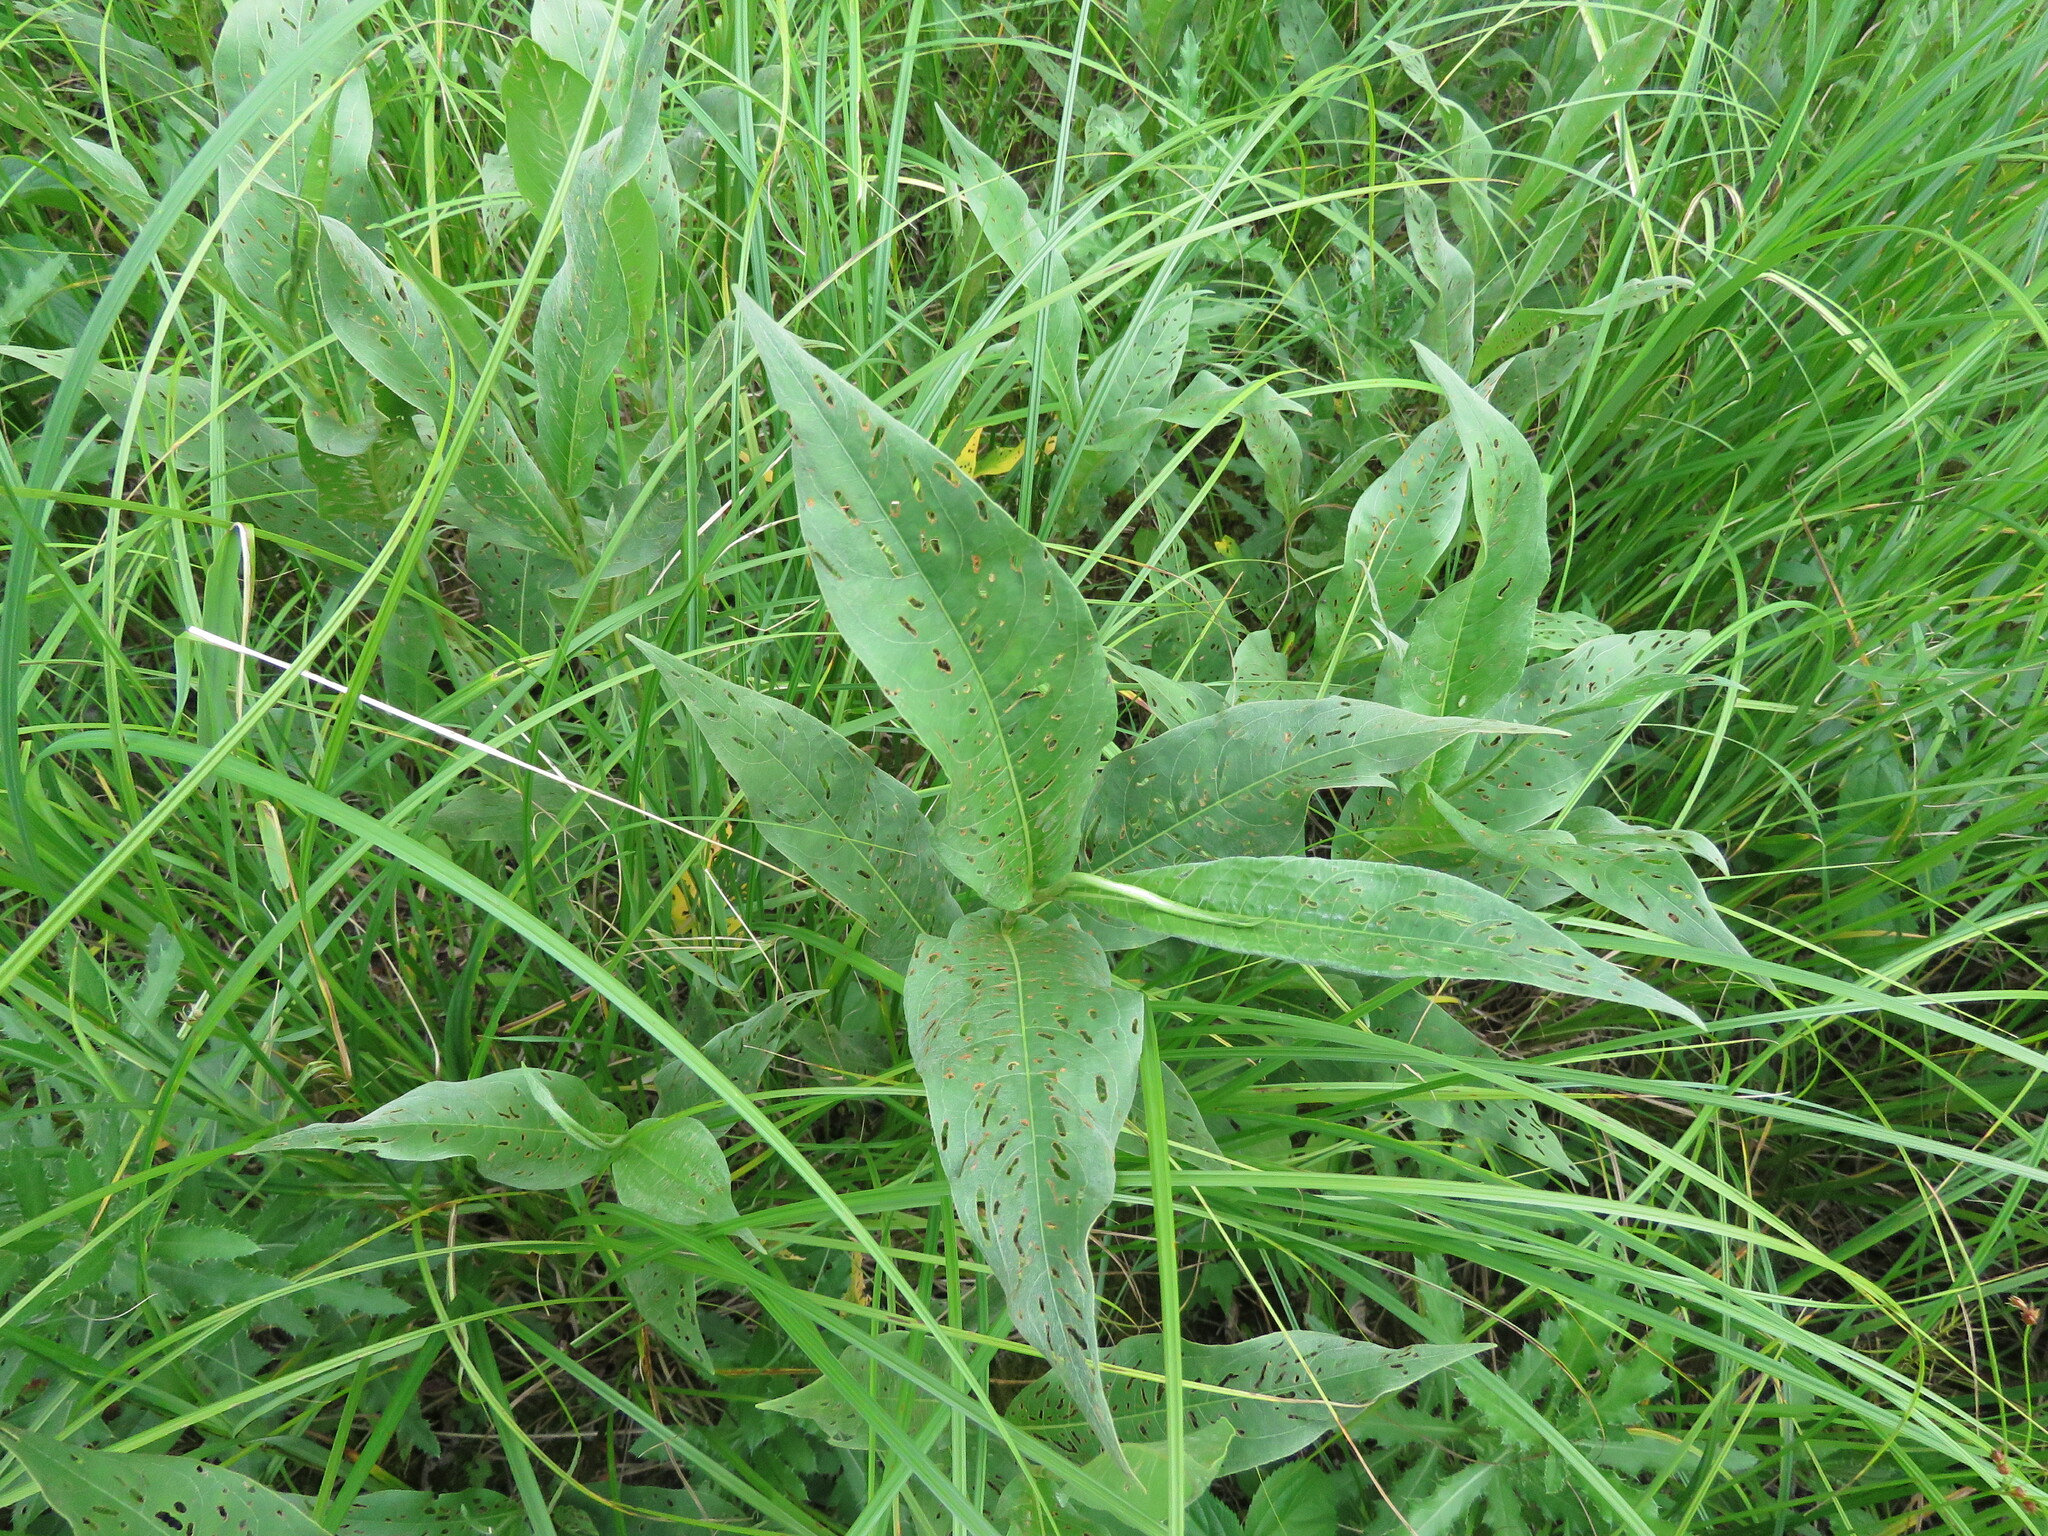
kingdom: Plantae
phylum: Tracheophyta
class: Magnoliopsida
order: Caryophyllales
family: Polygonaceae
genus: Persicaria
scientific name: Persicaria amphibia
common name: Amphibious bistort
